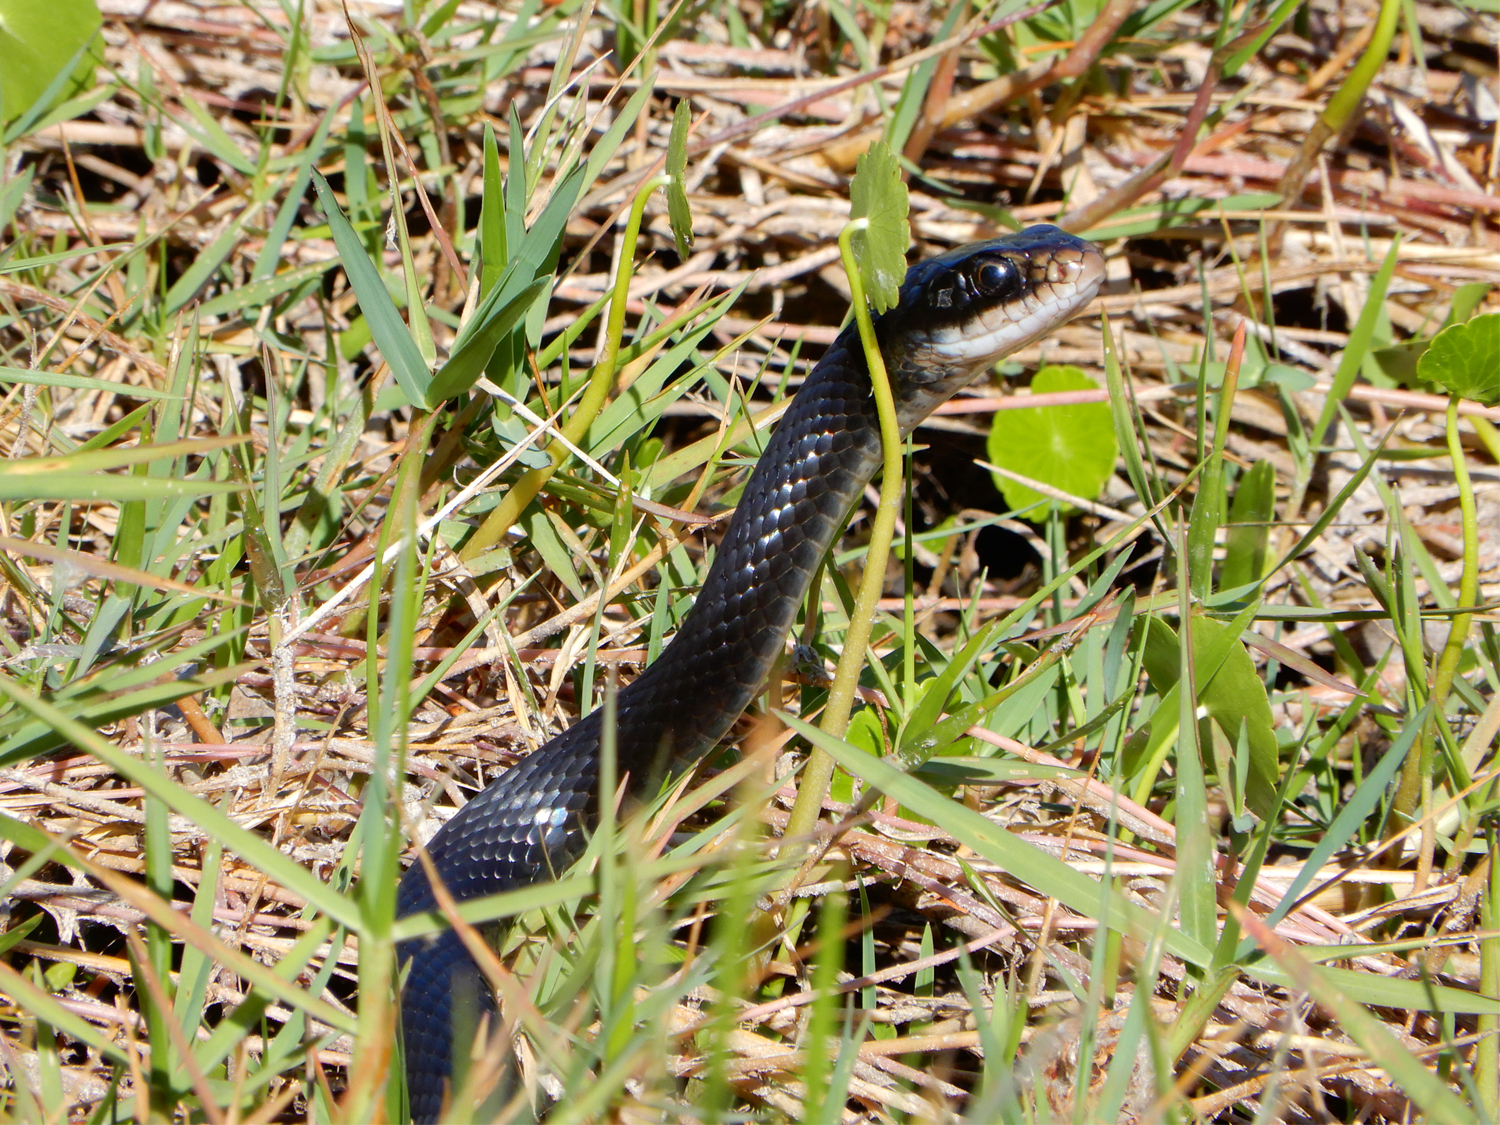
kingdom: Animalia
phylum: Chordata
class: Squamata
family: Colubridae
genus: Coluber
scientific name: Coluber constrictor
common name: Eastern racer
